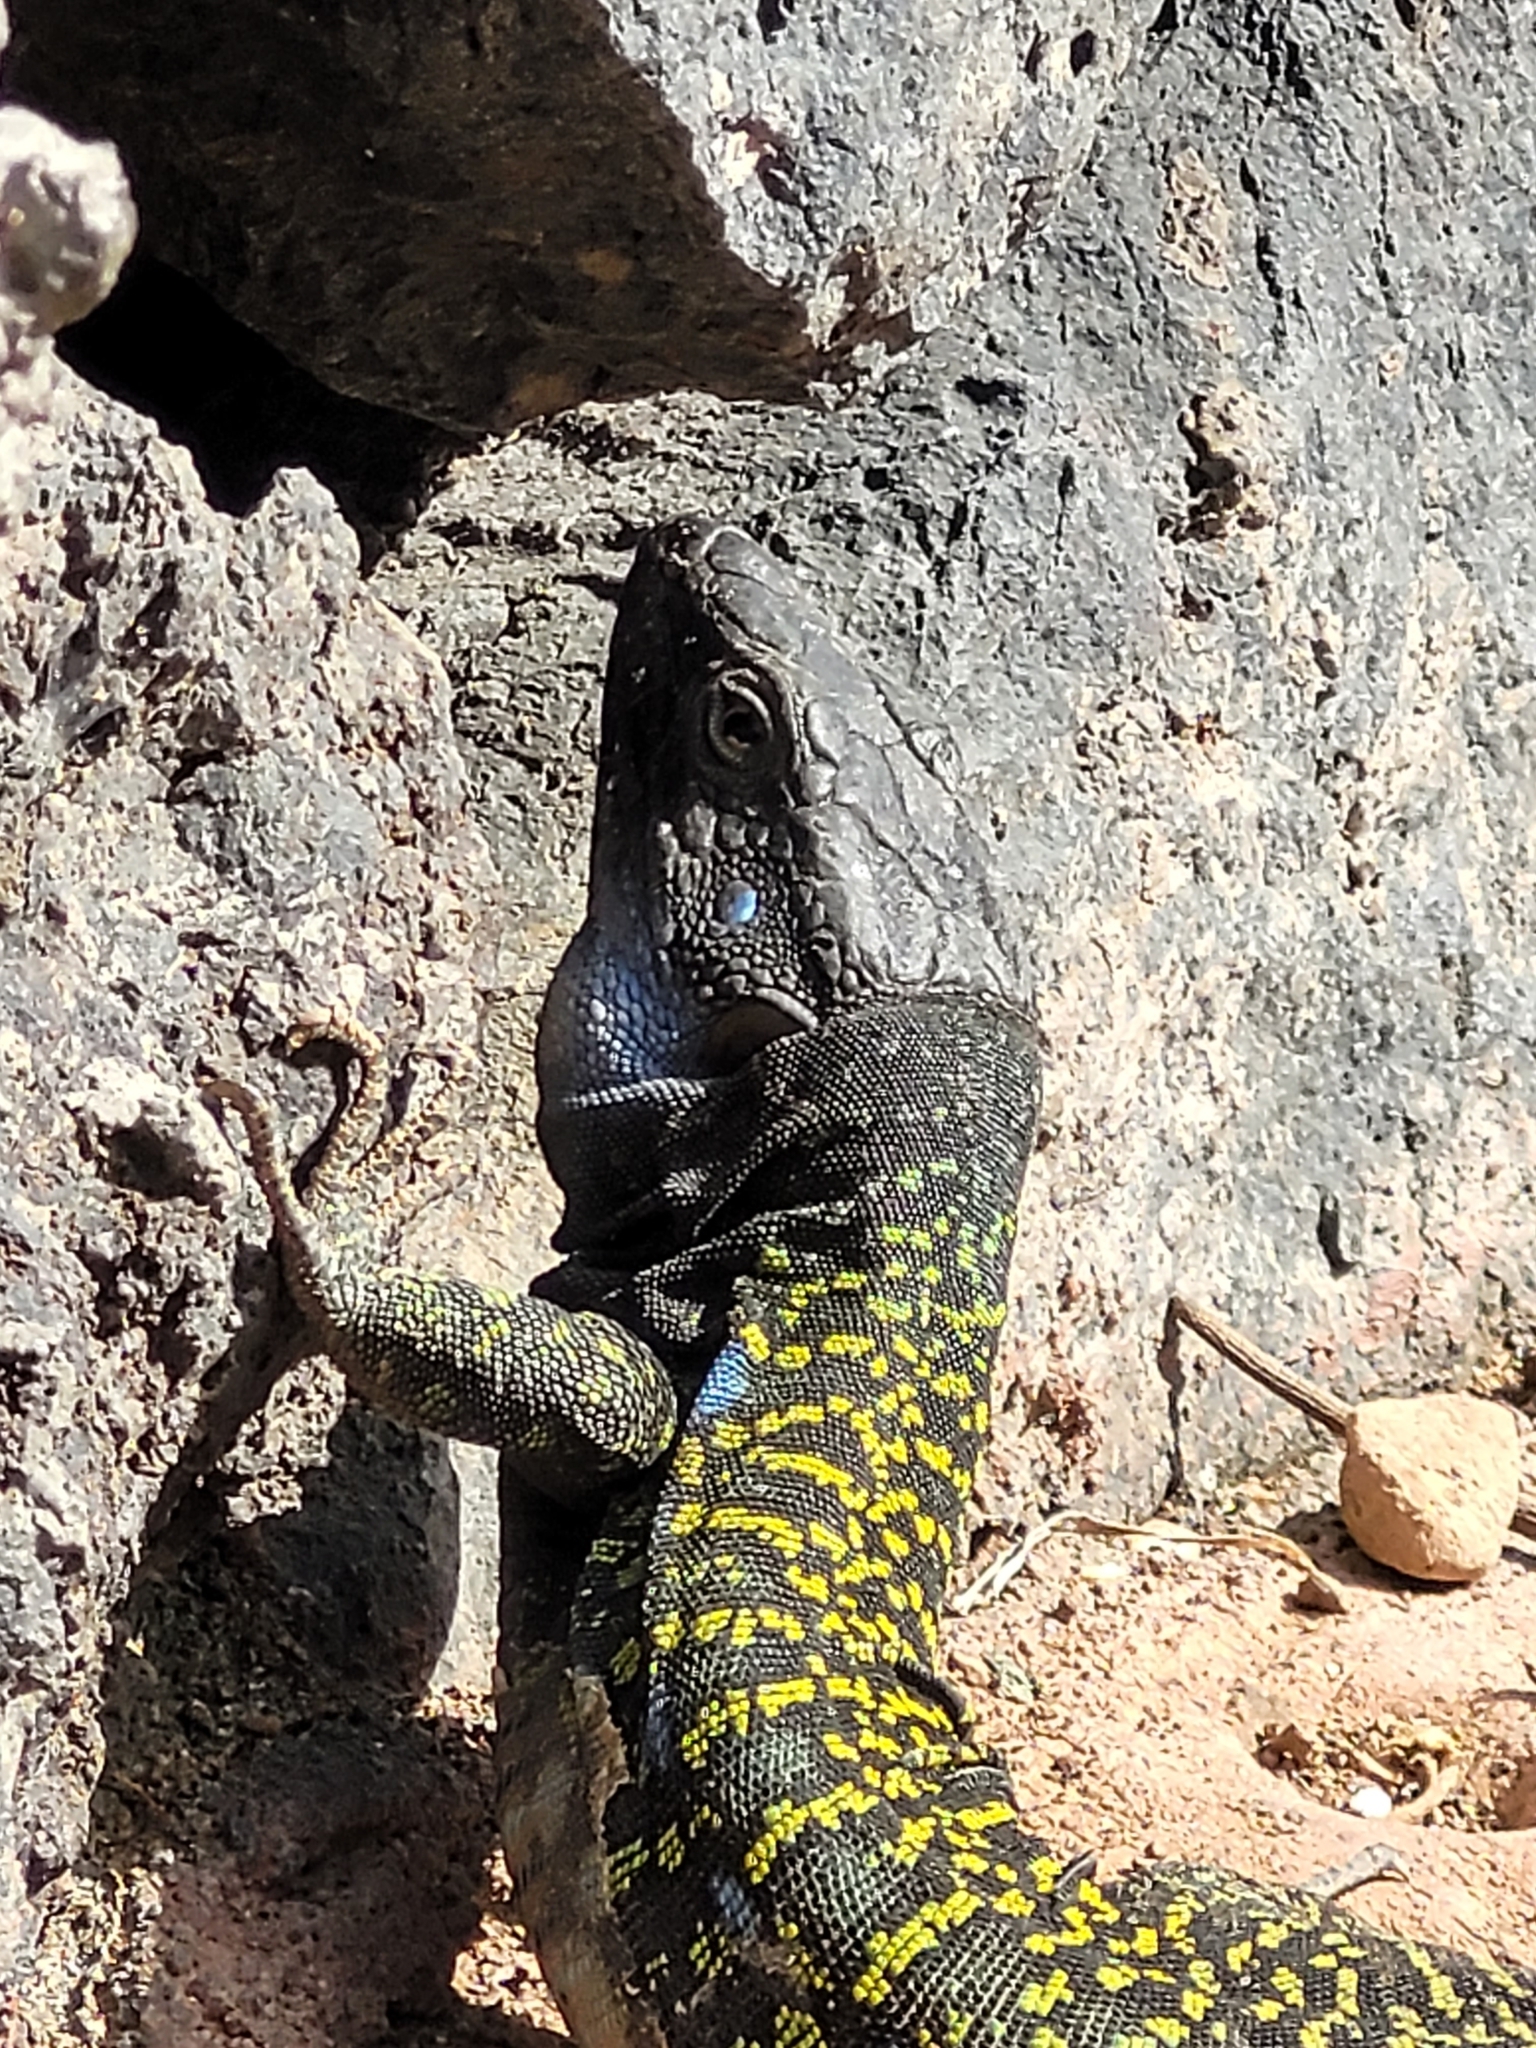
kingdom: Animalia
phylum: Chordata
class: Squamata
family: Lacertidae
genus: Gallotia
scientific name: Gallotia galloti
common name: Gallot's lizard
